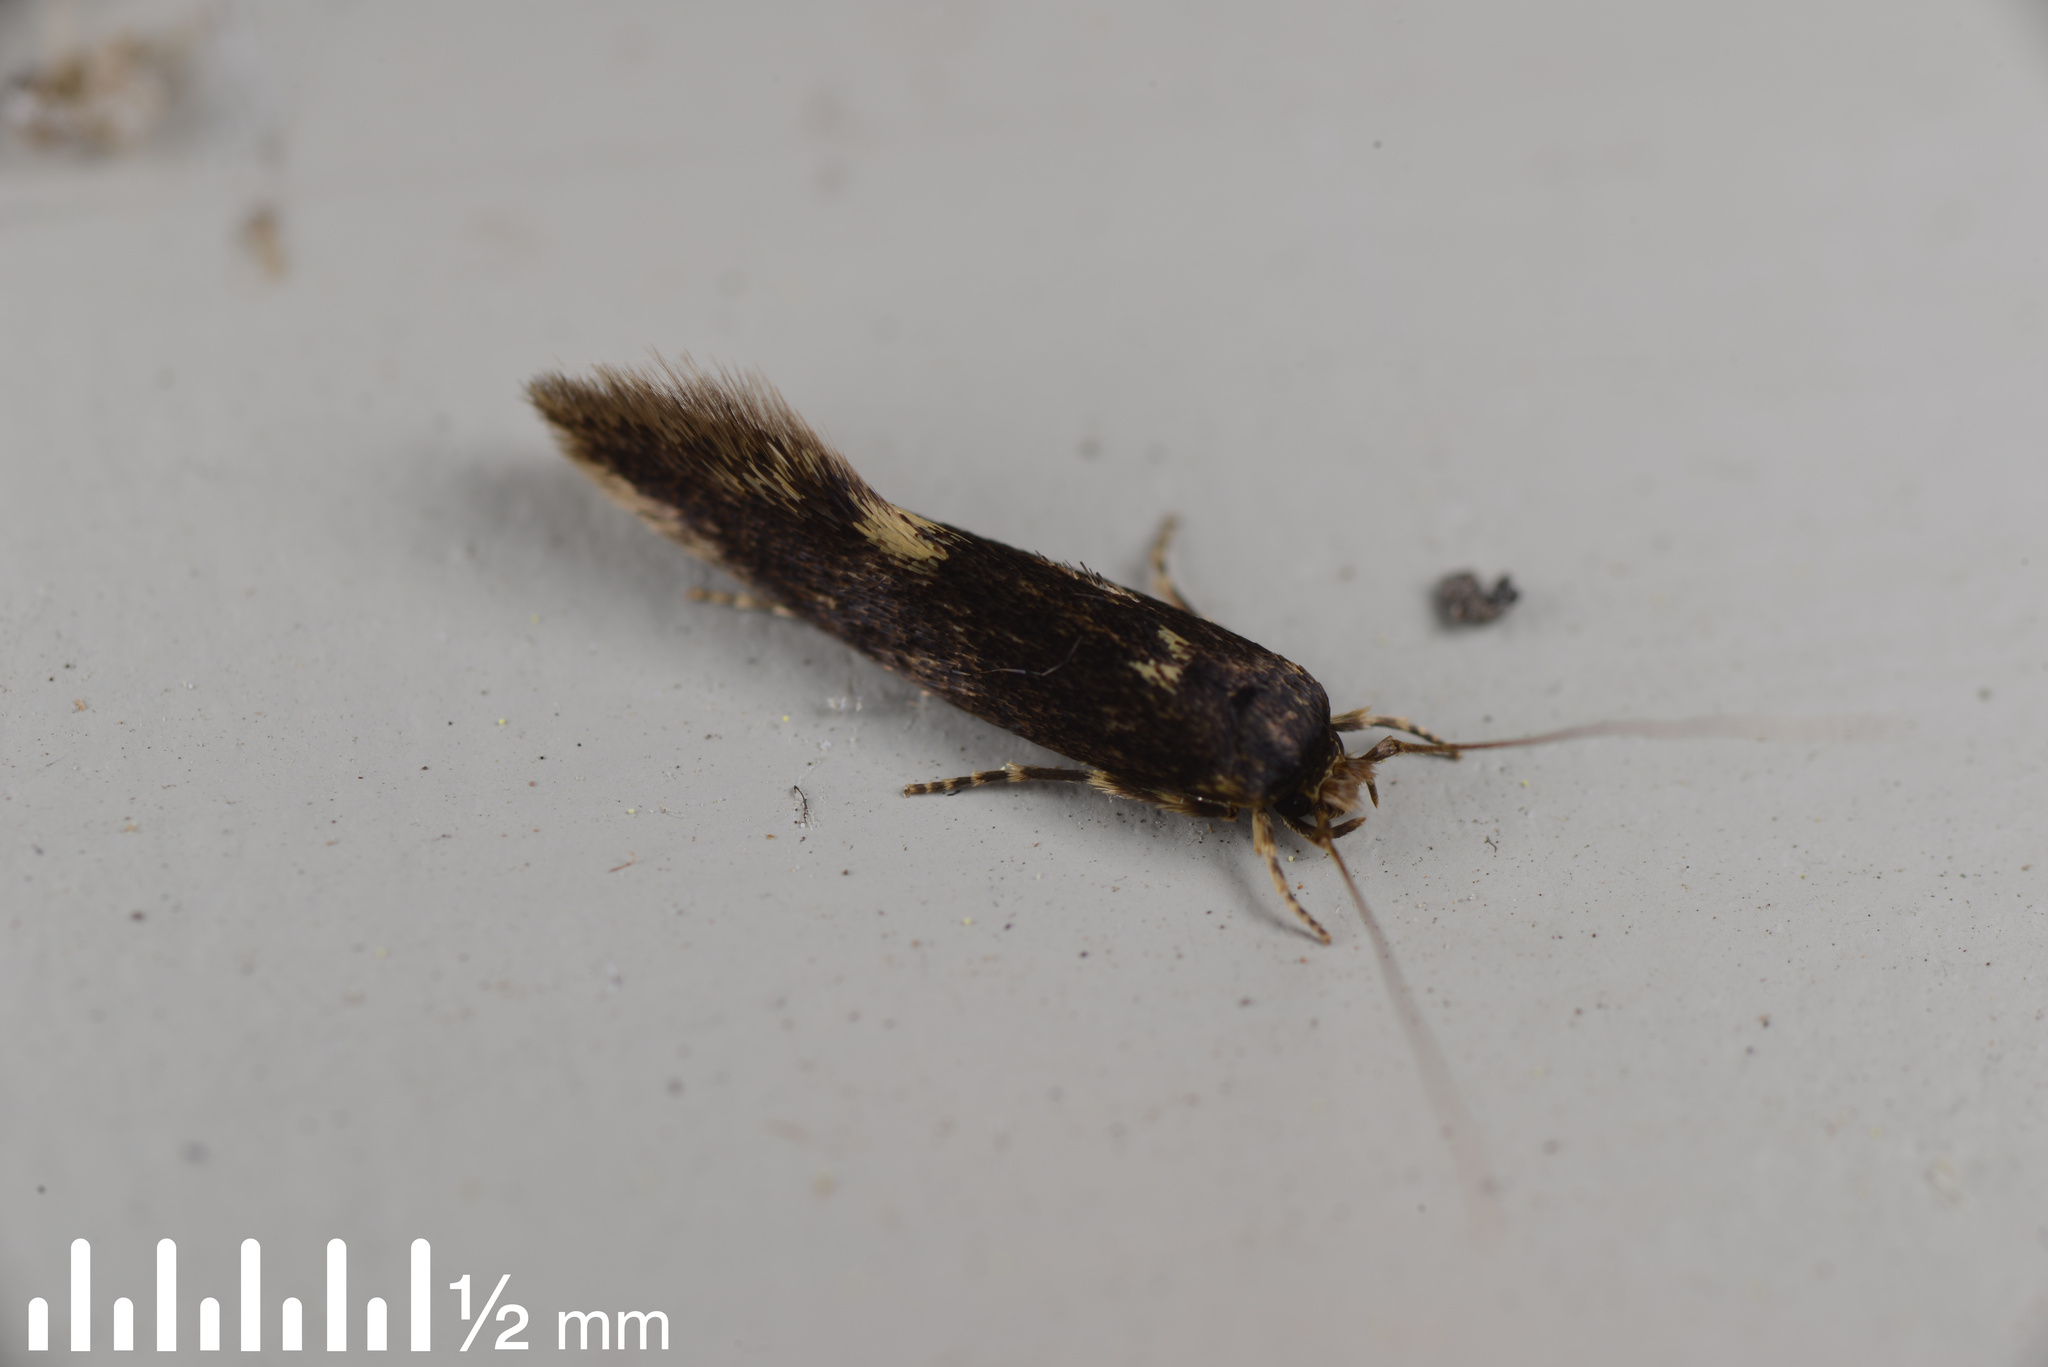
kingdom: Animalia
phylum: Arthropoda
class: Insecta
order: Lepidoptera
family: Tineidae
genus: Opogona
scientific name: Opogona omoscopa
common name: Moth
